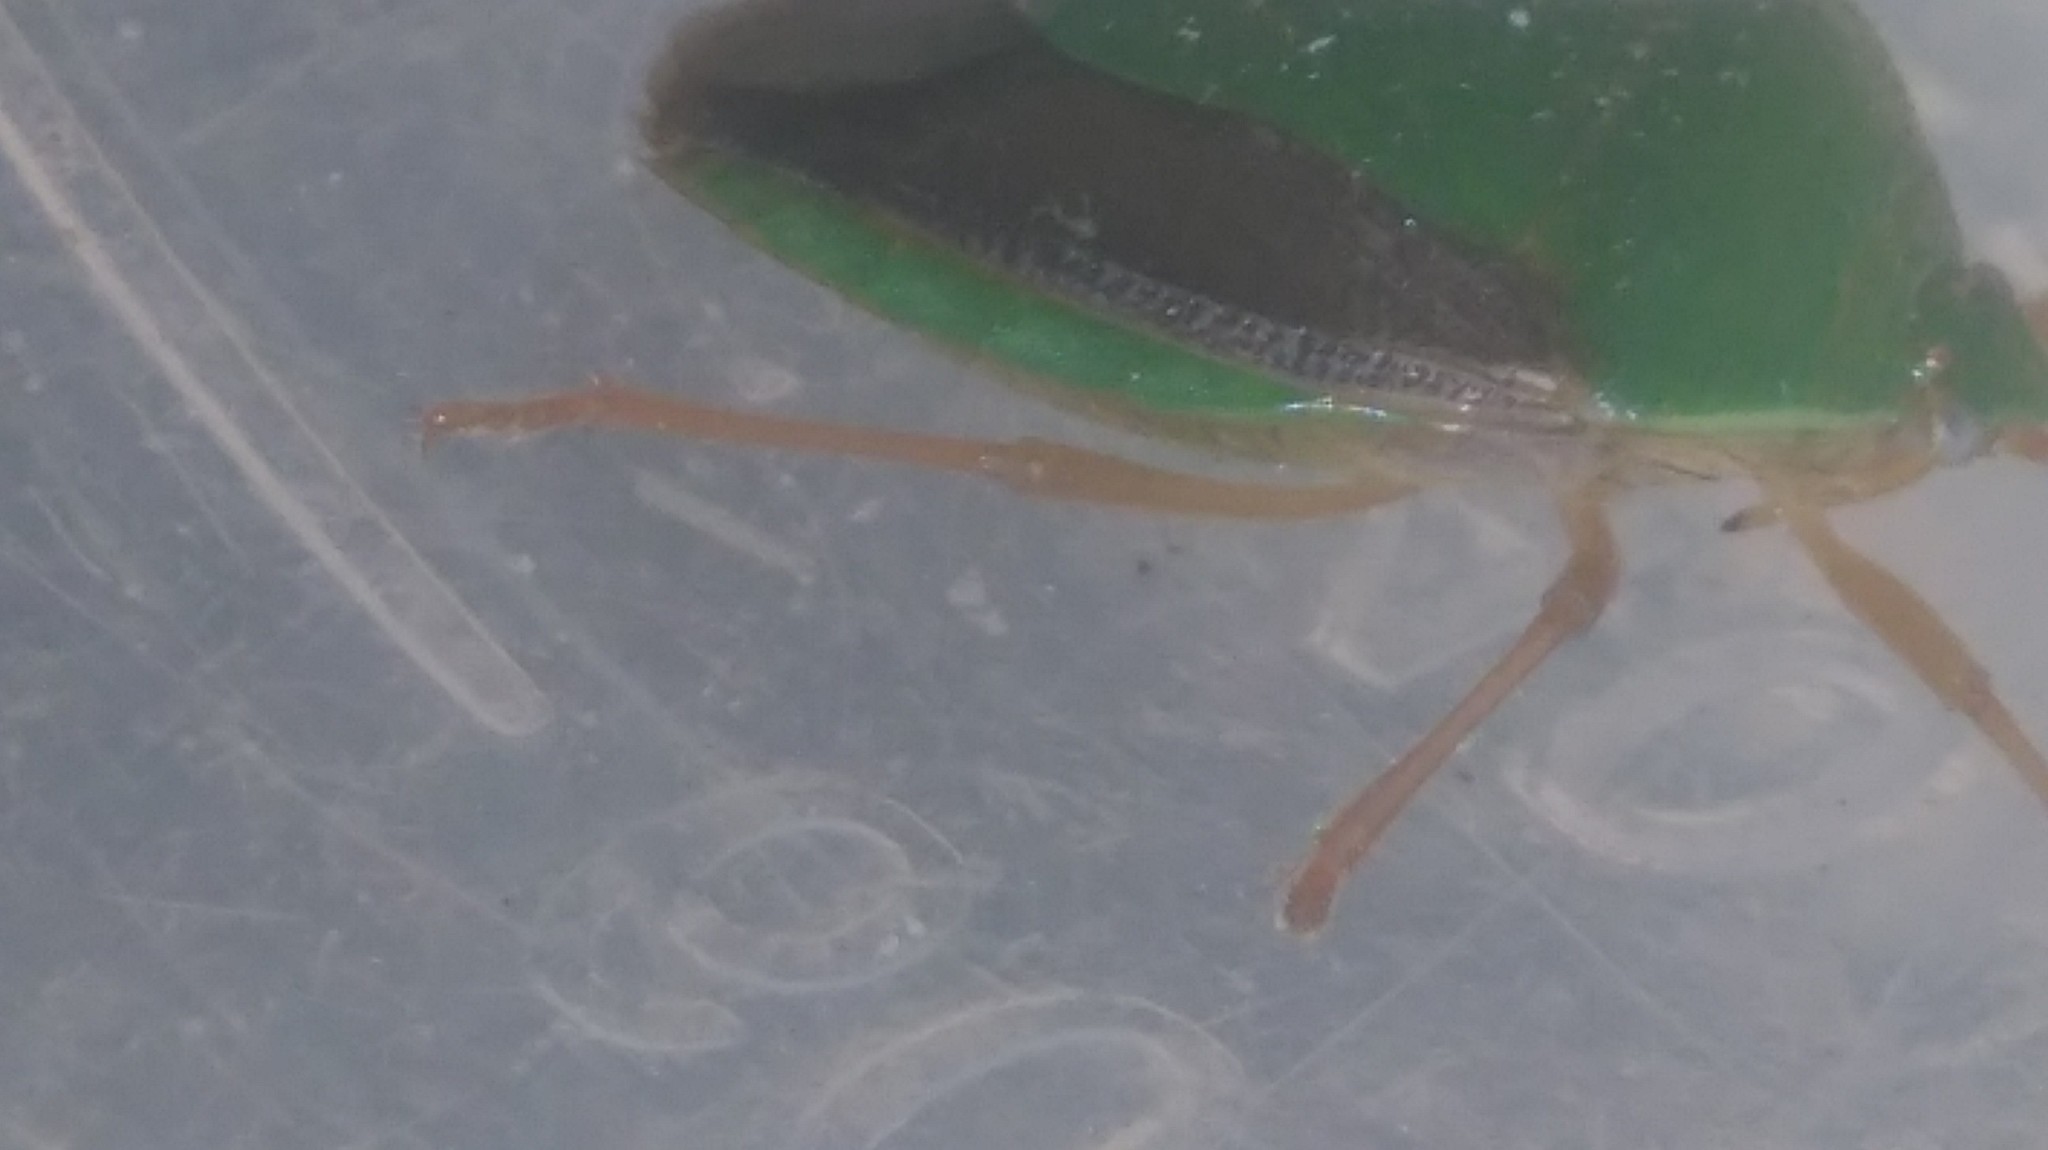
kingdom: Animalia
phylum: Arthropoda
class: Insecta
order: Hemiptera
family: Pentatomidae
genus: Edessa
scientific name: Edessa meditabunda
